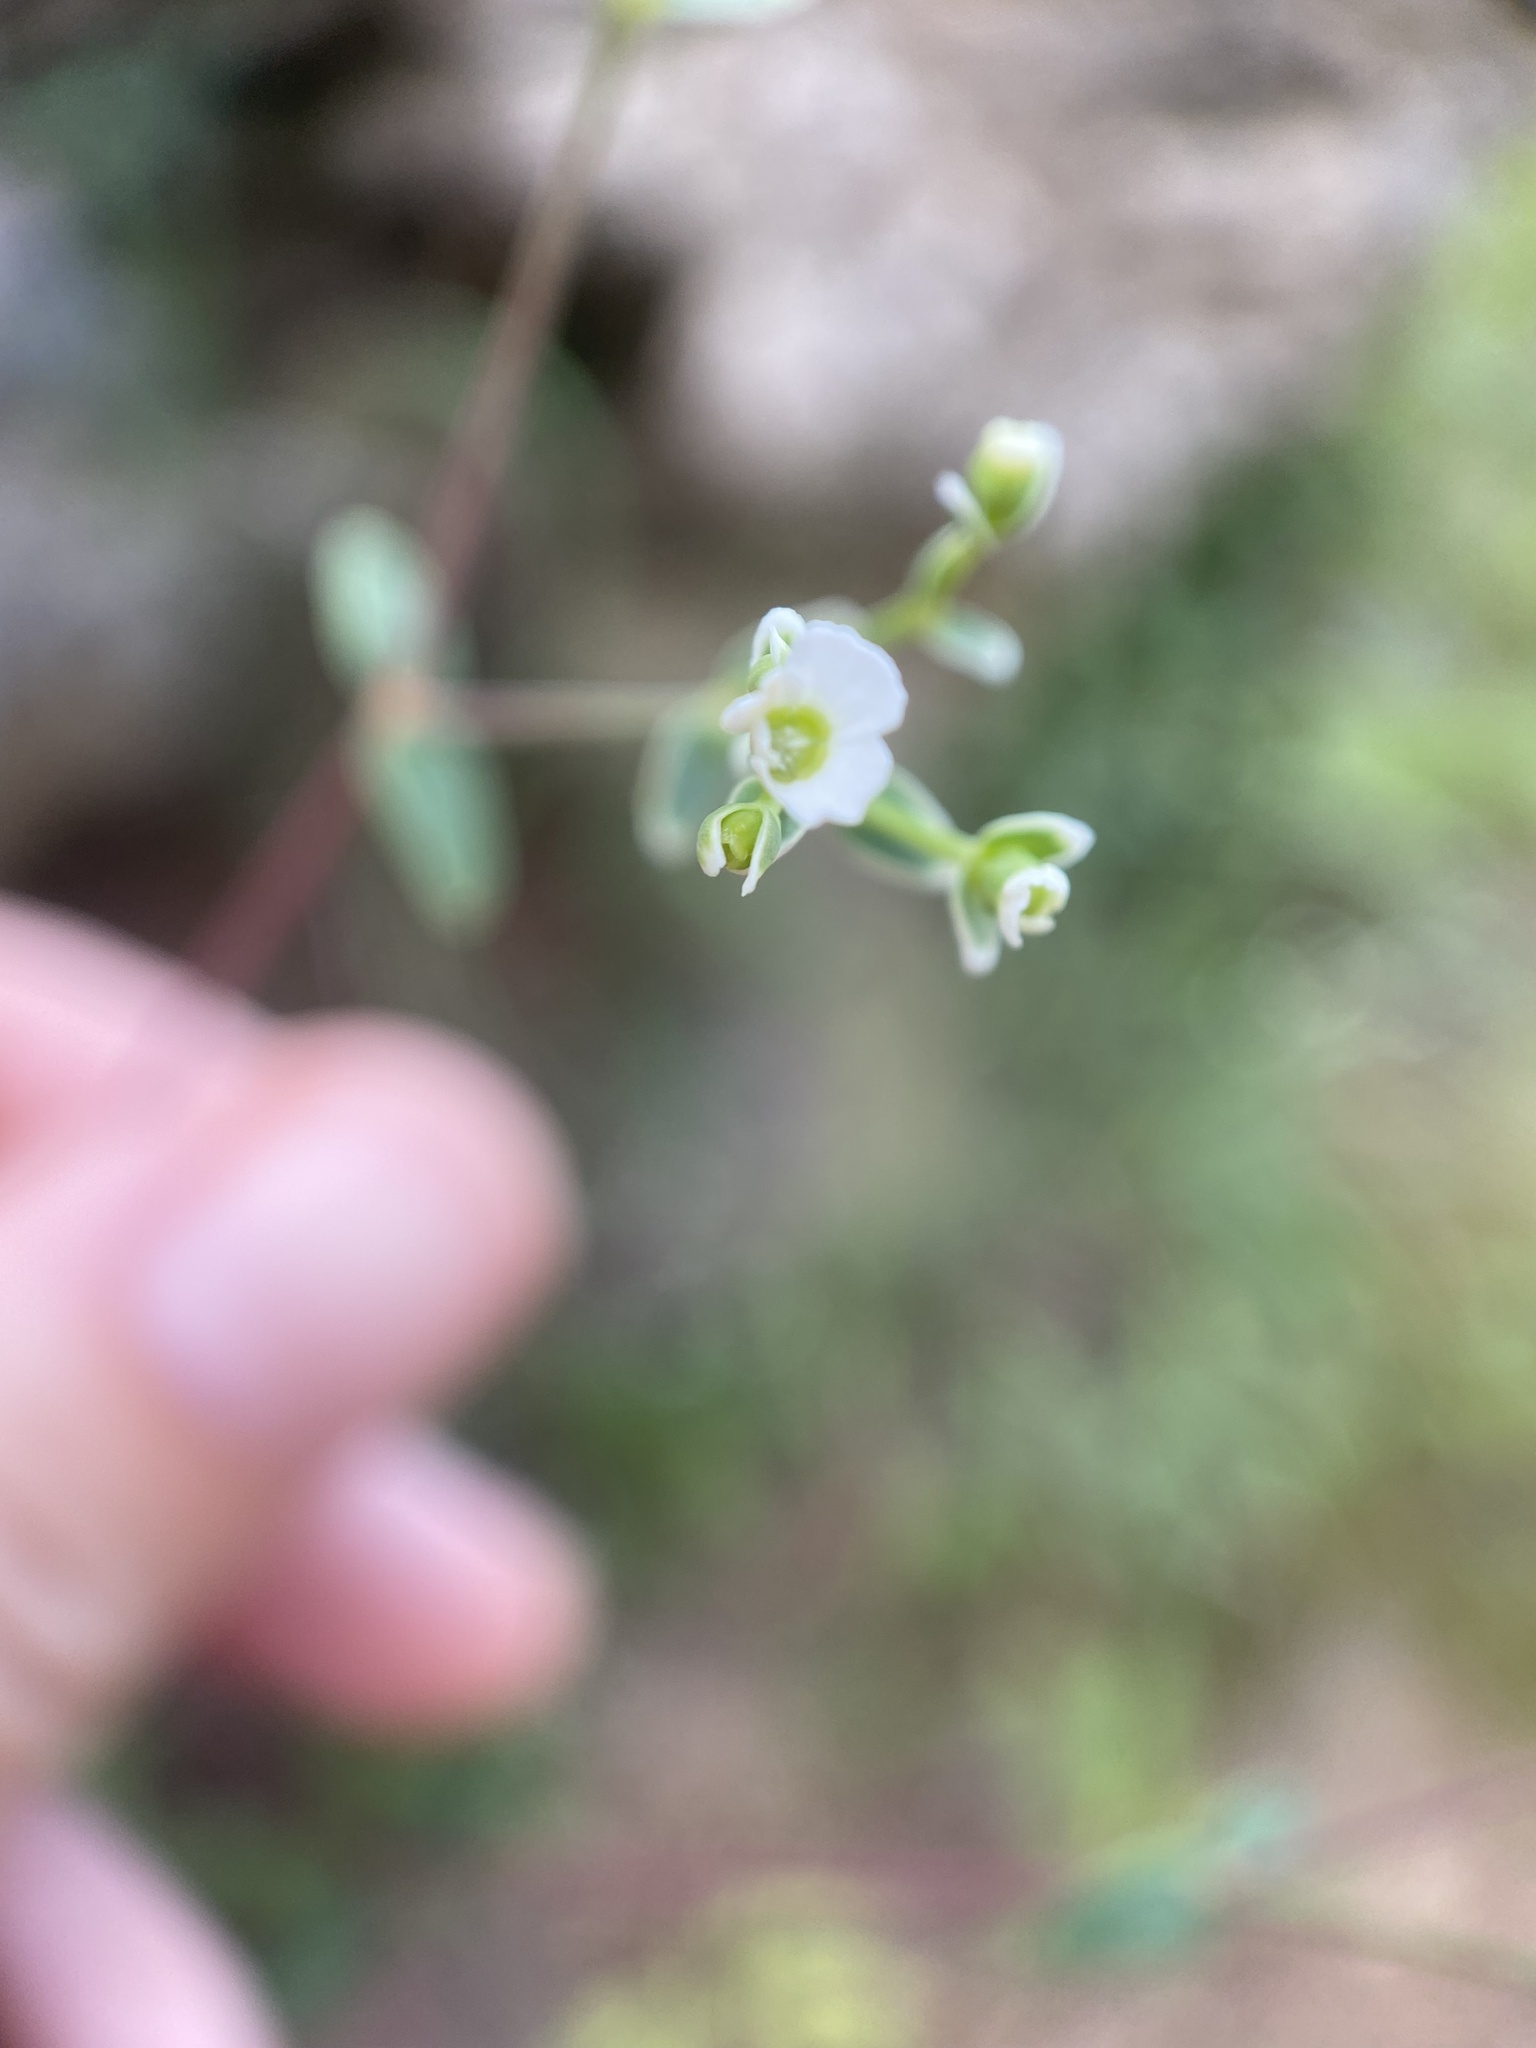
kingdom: Plantae
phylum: Tracheophyta
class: Magnoliopsida
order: Malpighiales
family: Euphorbiaceae
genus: Euphorbia
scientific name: Euphorbia corollata
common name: Flowering spurge
